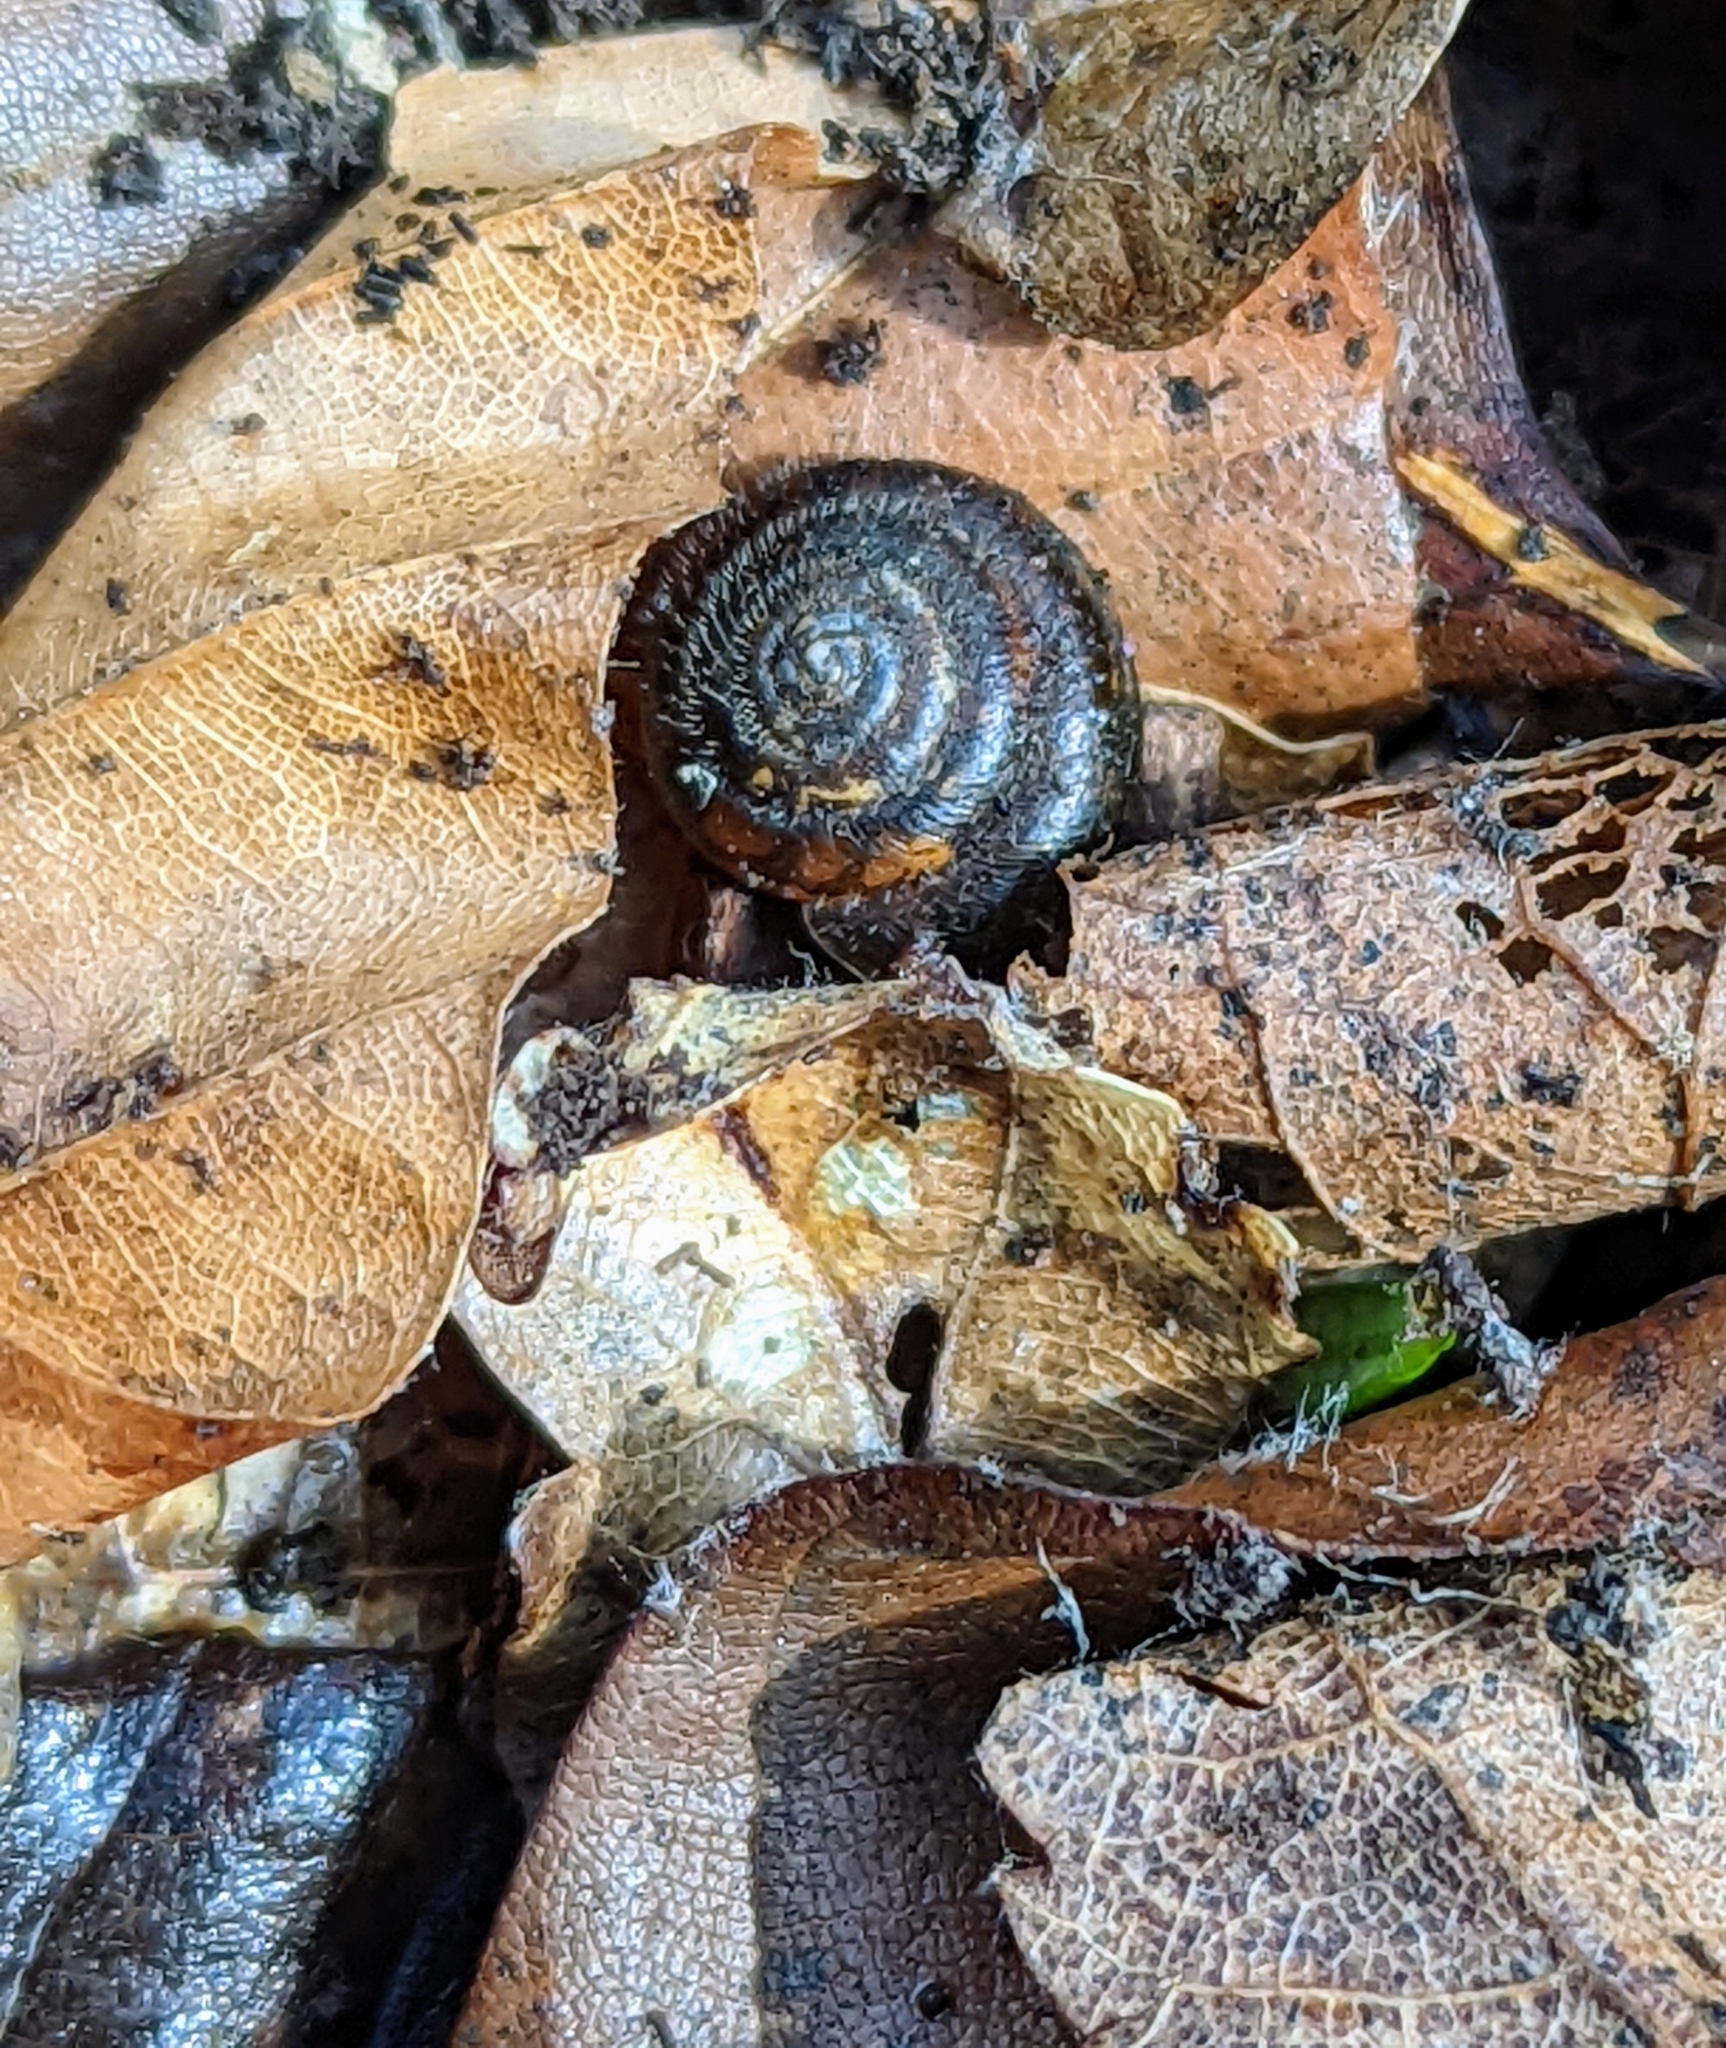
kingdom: Animalia
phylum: Mollusca
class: Gastropoda
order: Stylommatophora
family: Hygromiidae
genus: Trochulus
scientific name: Trochulus hispidus
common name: Hairy snail
